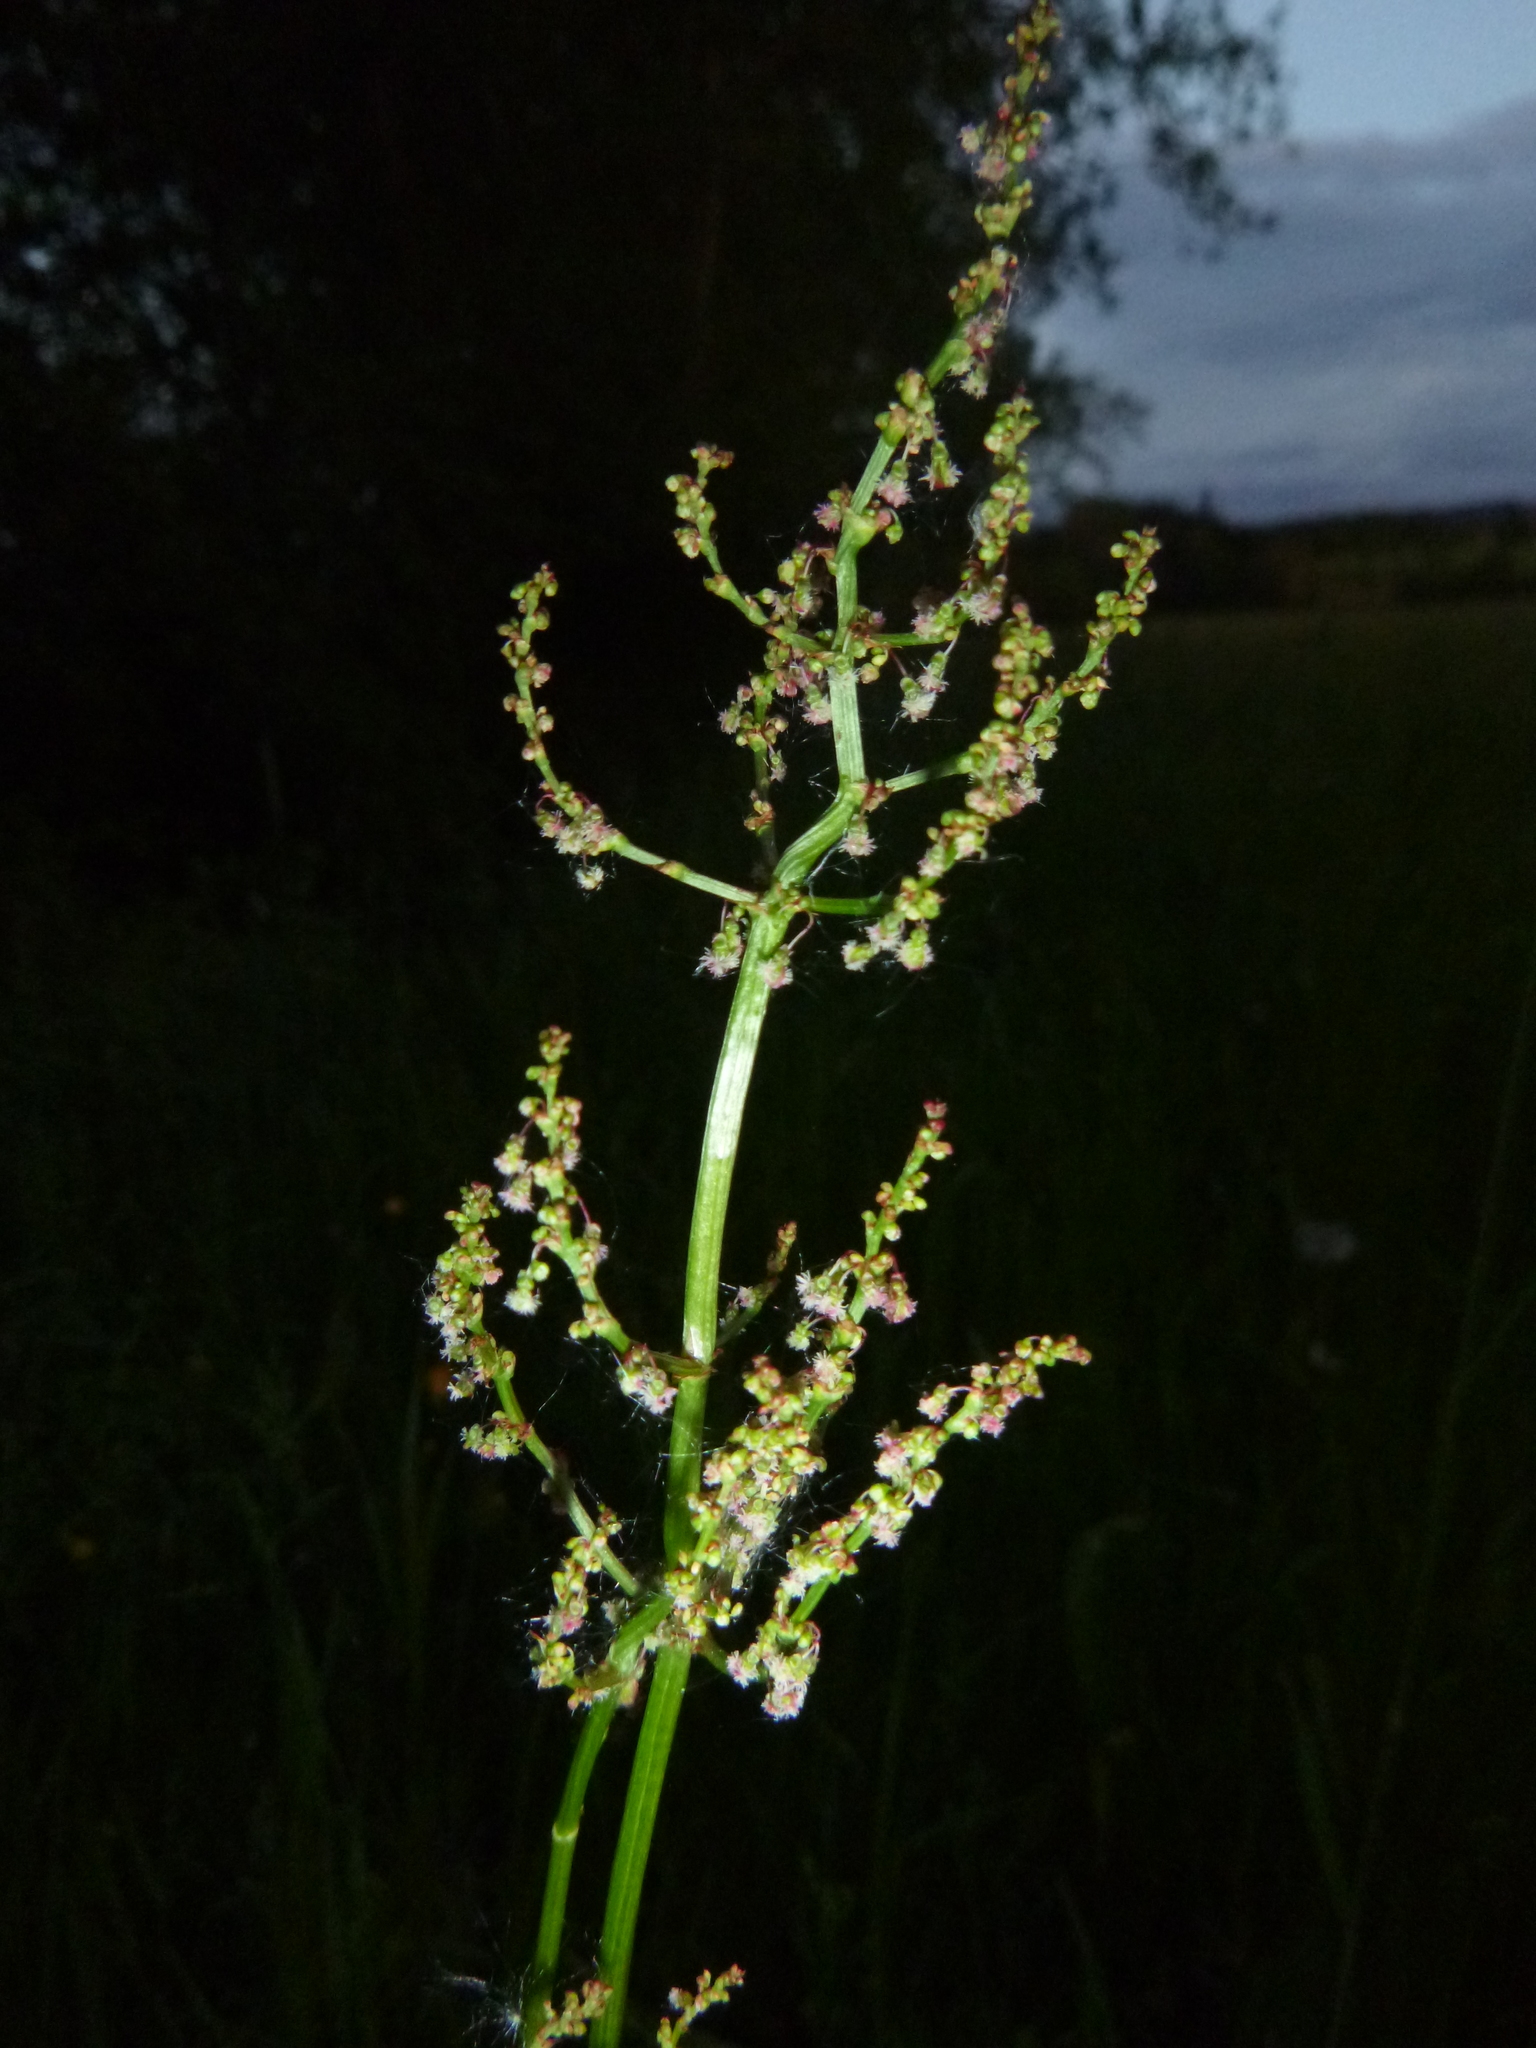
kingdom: Plantae
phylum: Tracheophyta
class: Magnoliopsida
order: Caryophyllales
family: Polygonaceae
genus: Rumex
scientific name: Rumex acetosa
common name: Garden sorrel
